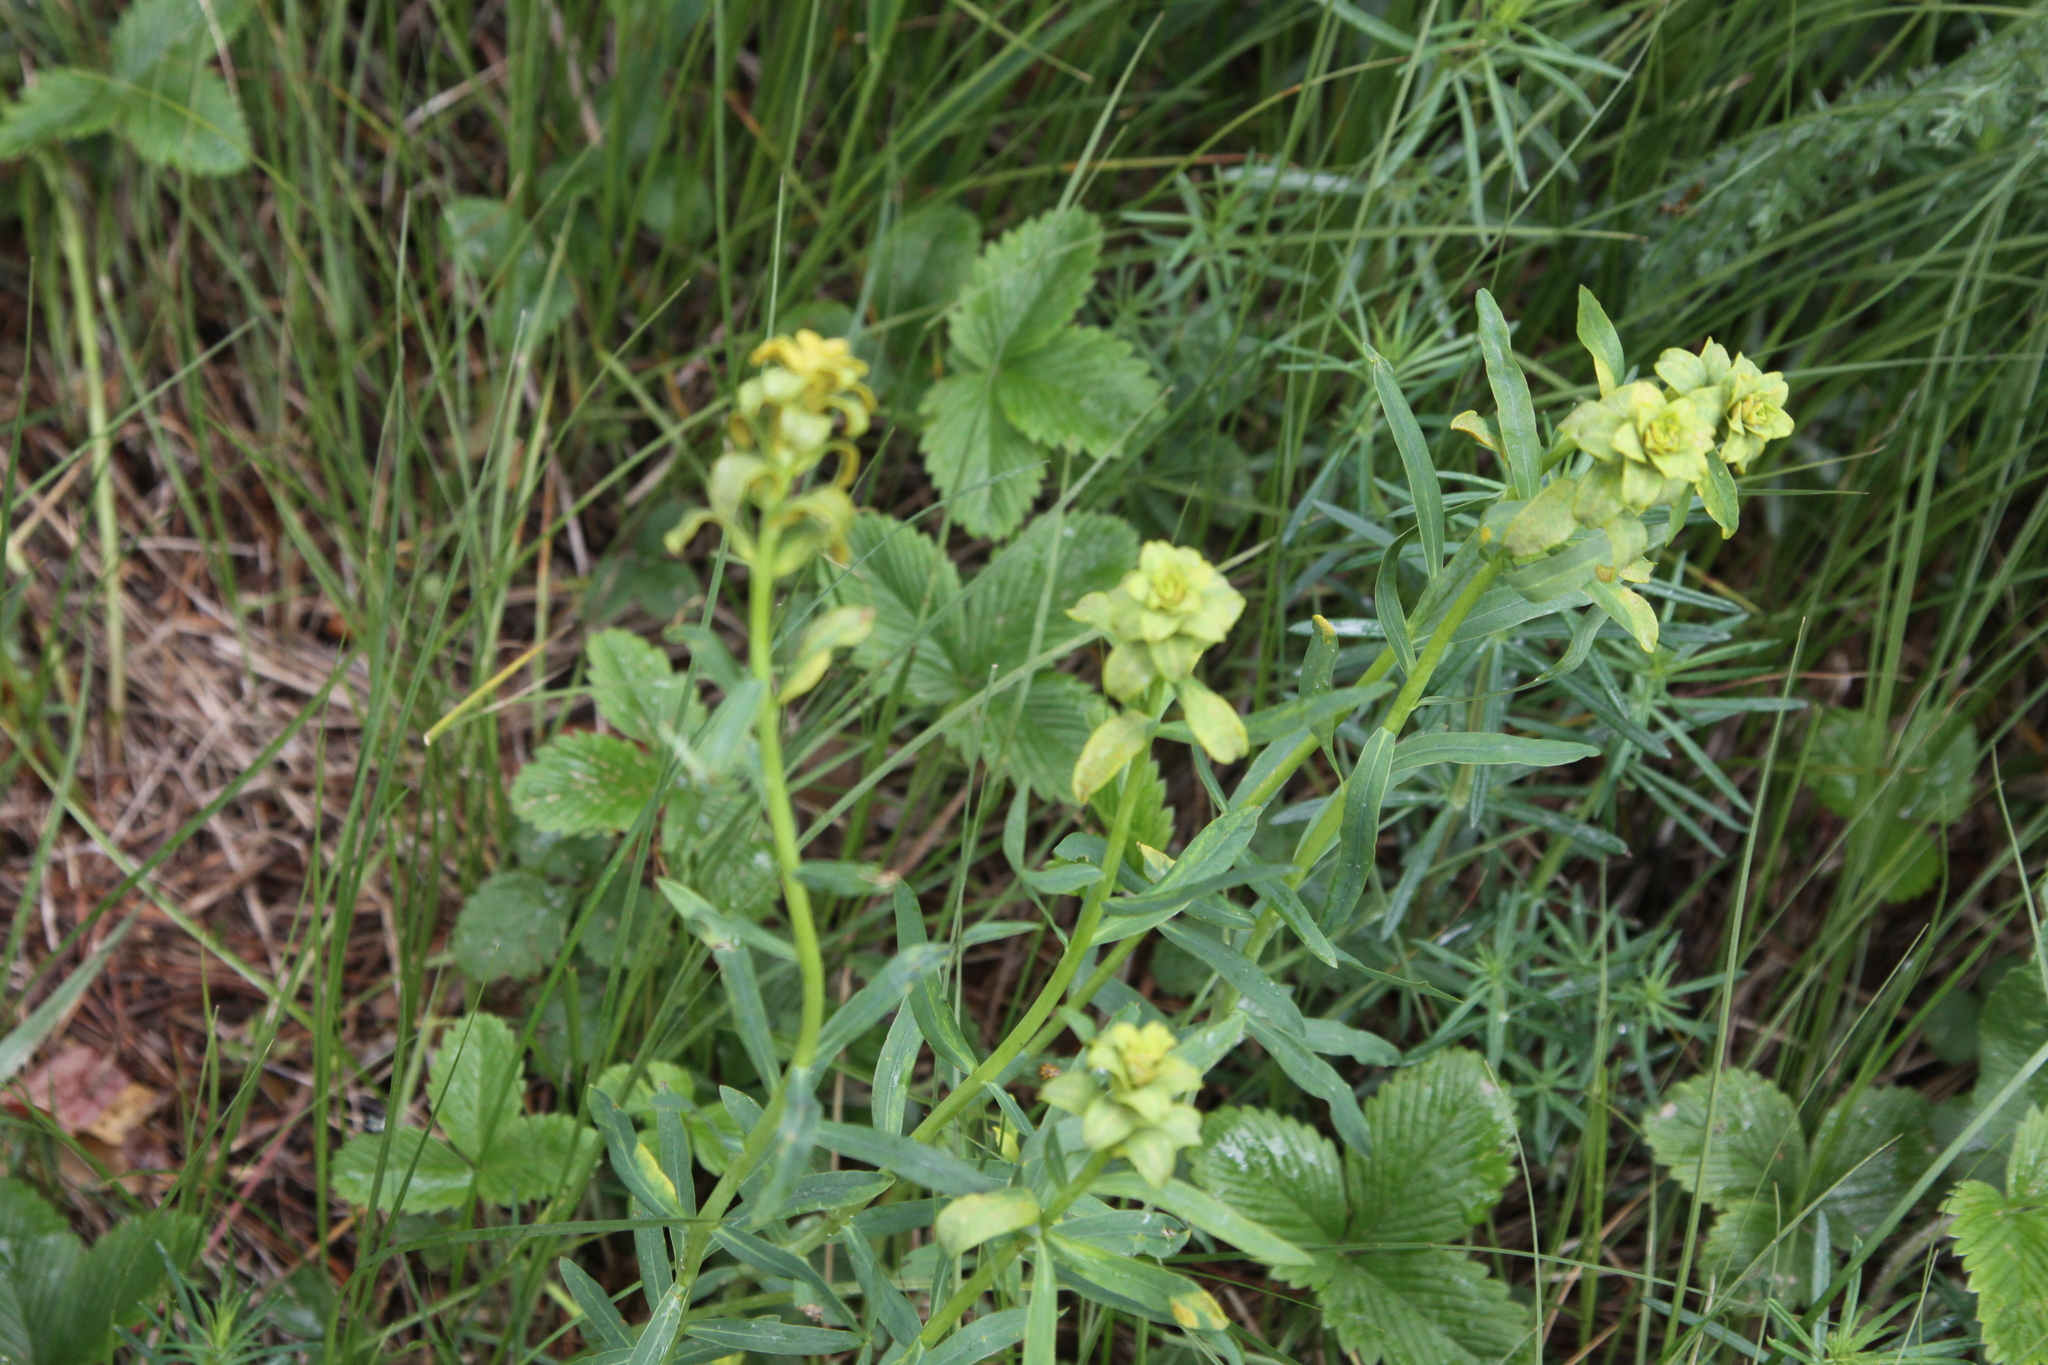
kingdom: Plantae
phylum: Tracheophyta
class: Magnoliopsida
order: Malpighiales
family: Euphorbiaceae
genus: Euphorbia
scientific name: Euphorbia virgata
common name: Leafy spurge
